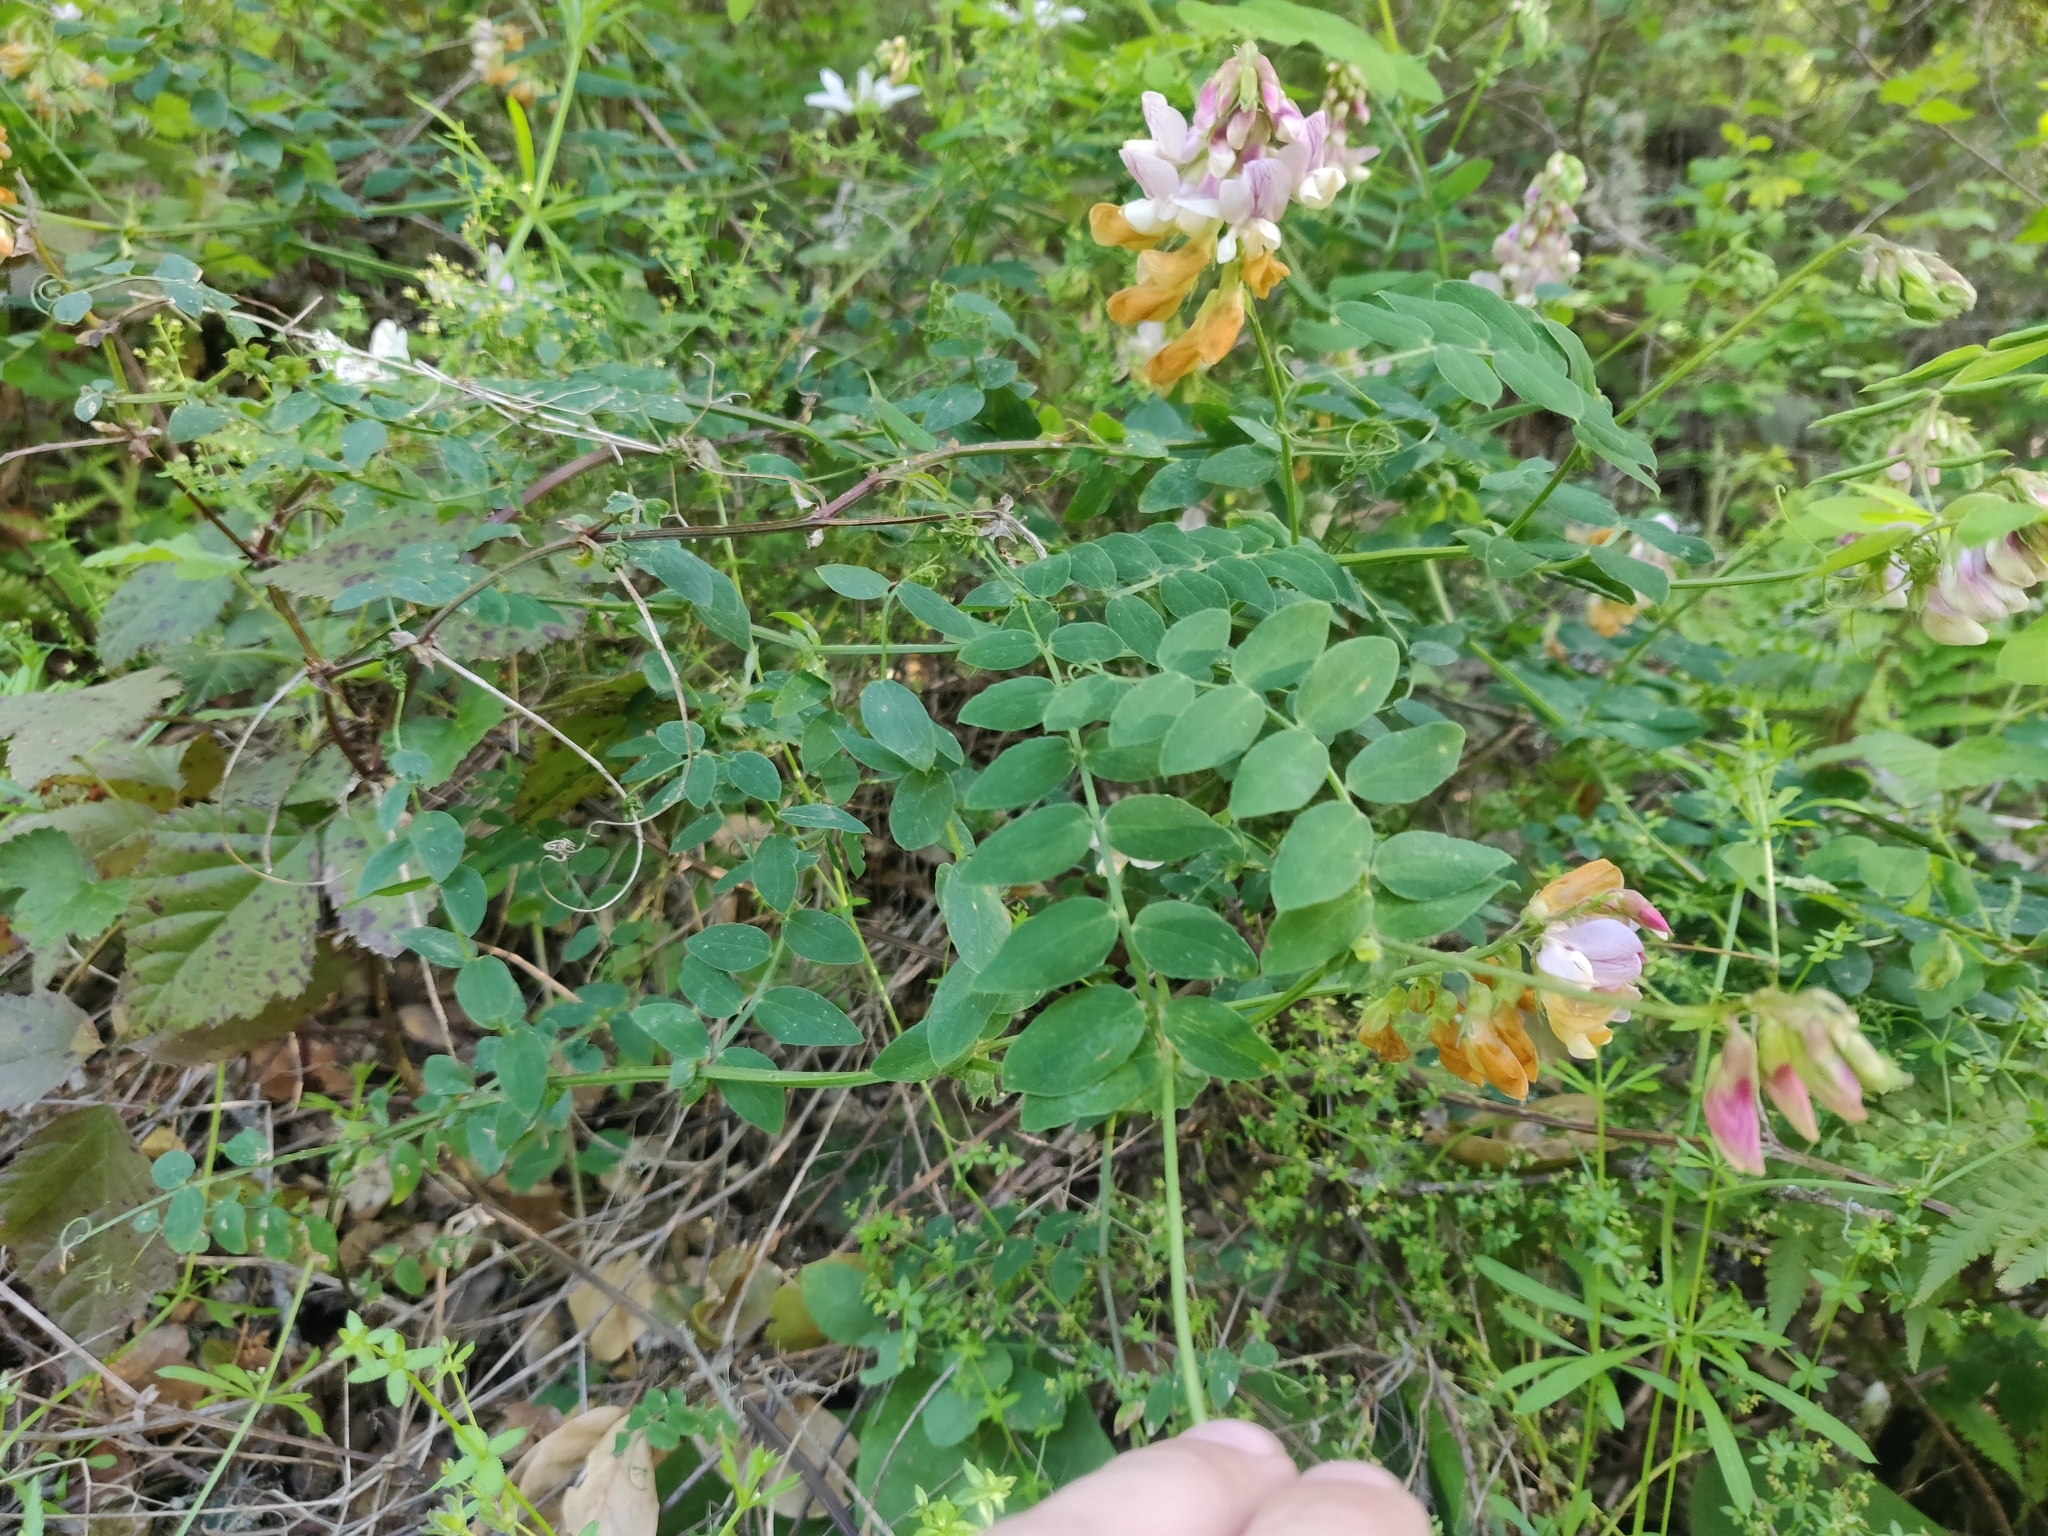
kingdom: Plantae
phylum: Tracheophyta
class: Magnoliopsida
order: Fabales
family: Fabaceae
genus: Lathyrus
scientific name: Lathyrus vestitus
